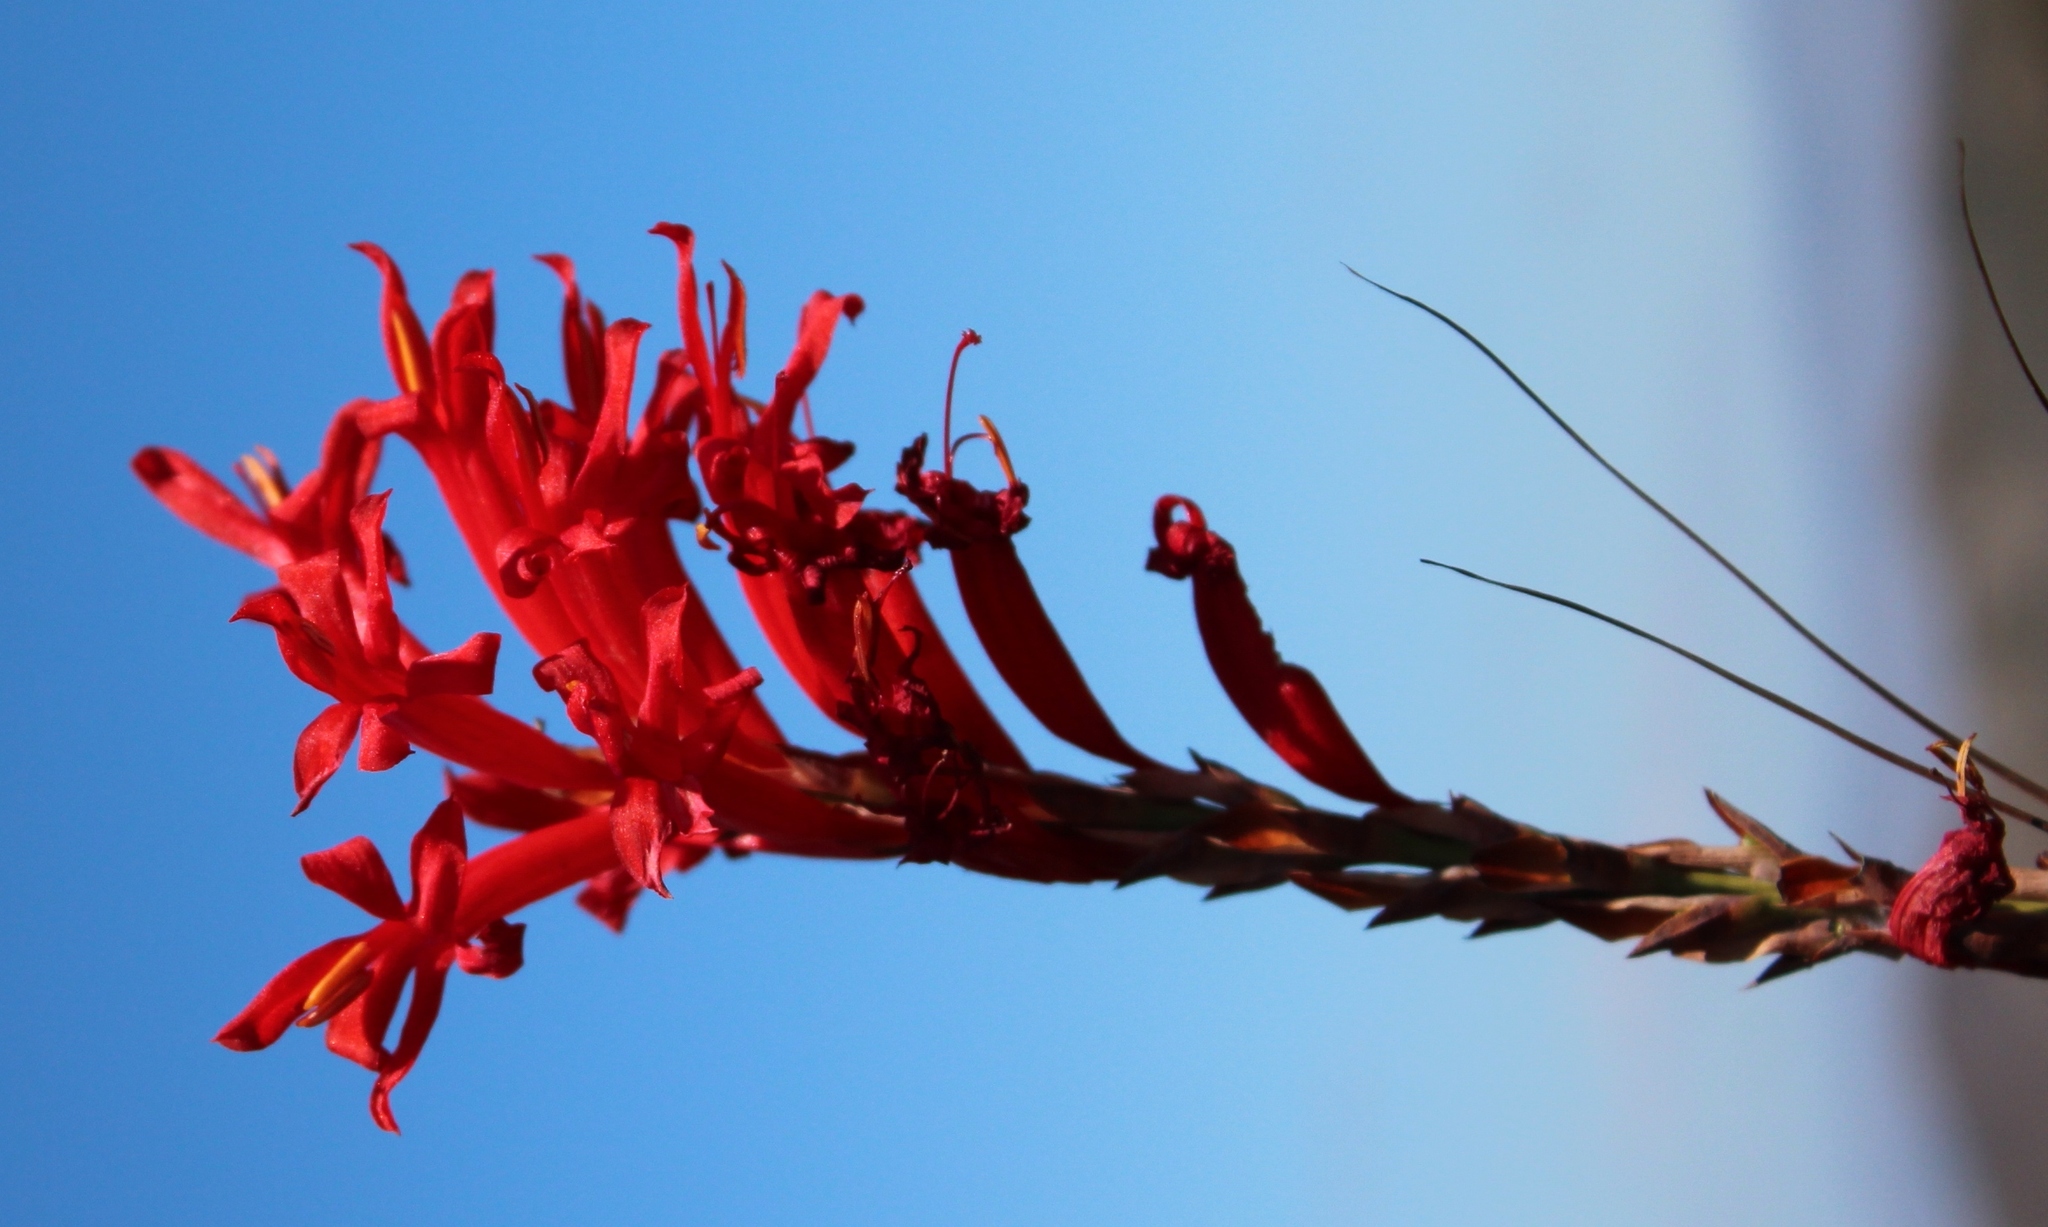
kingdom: Plantae
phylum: Tracheophyta
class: Liliopsida
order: Asparagales
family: Iridaceae
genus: Tritoniopsis
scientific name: Tritoniopsis triticea
